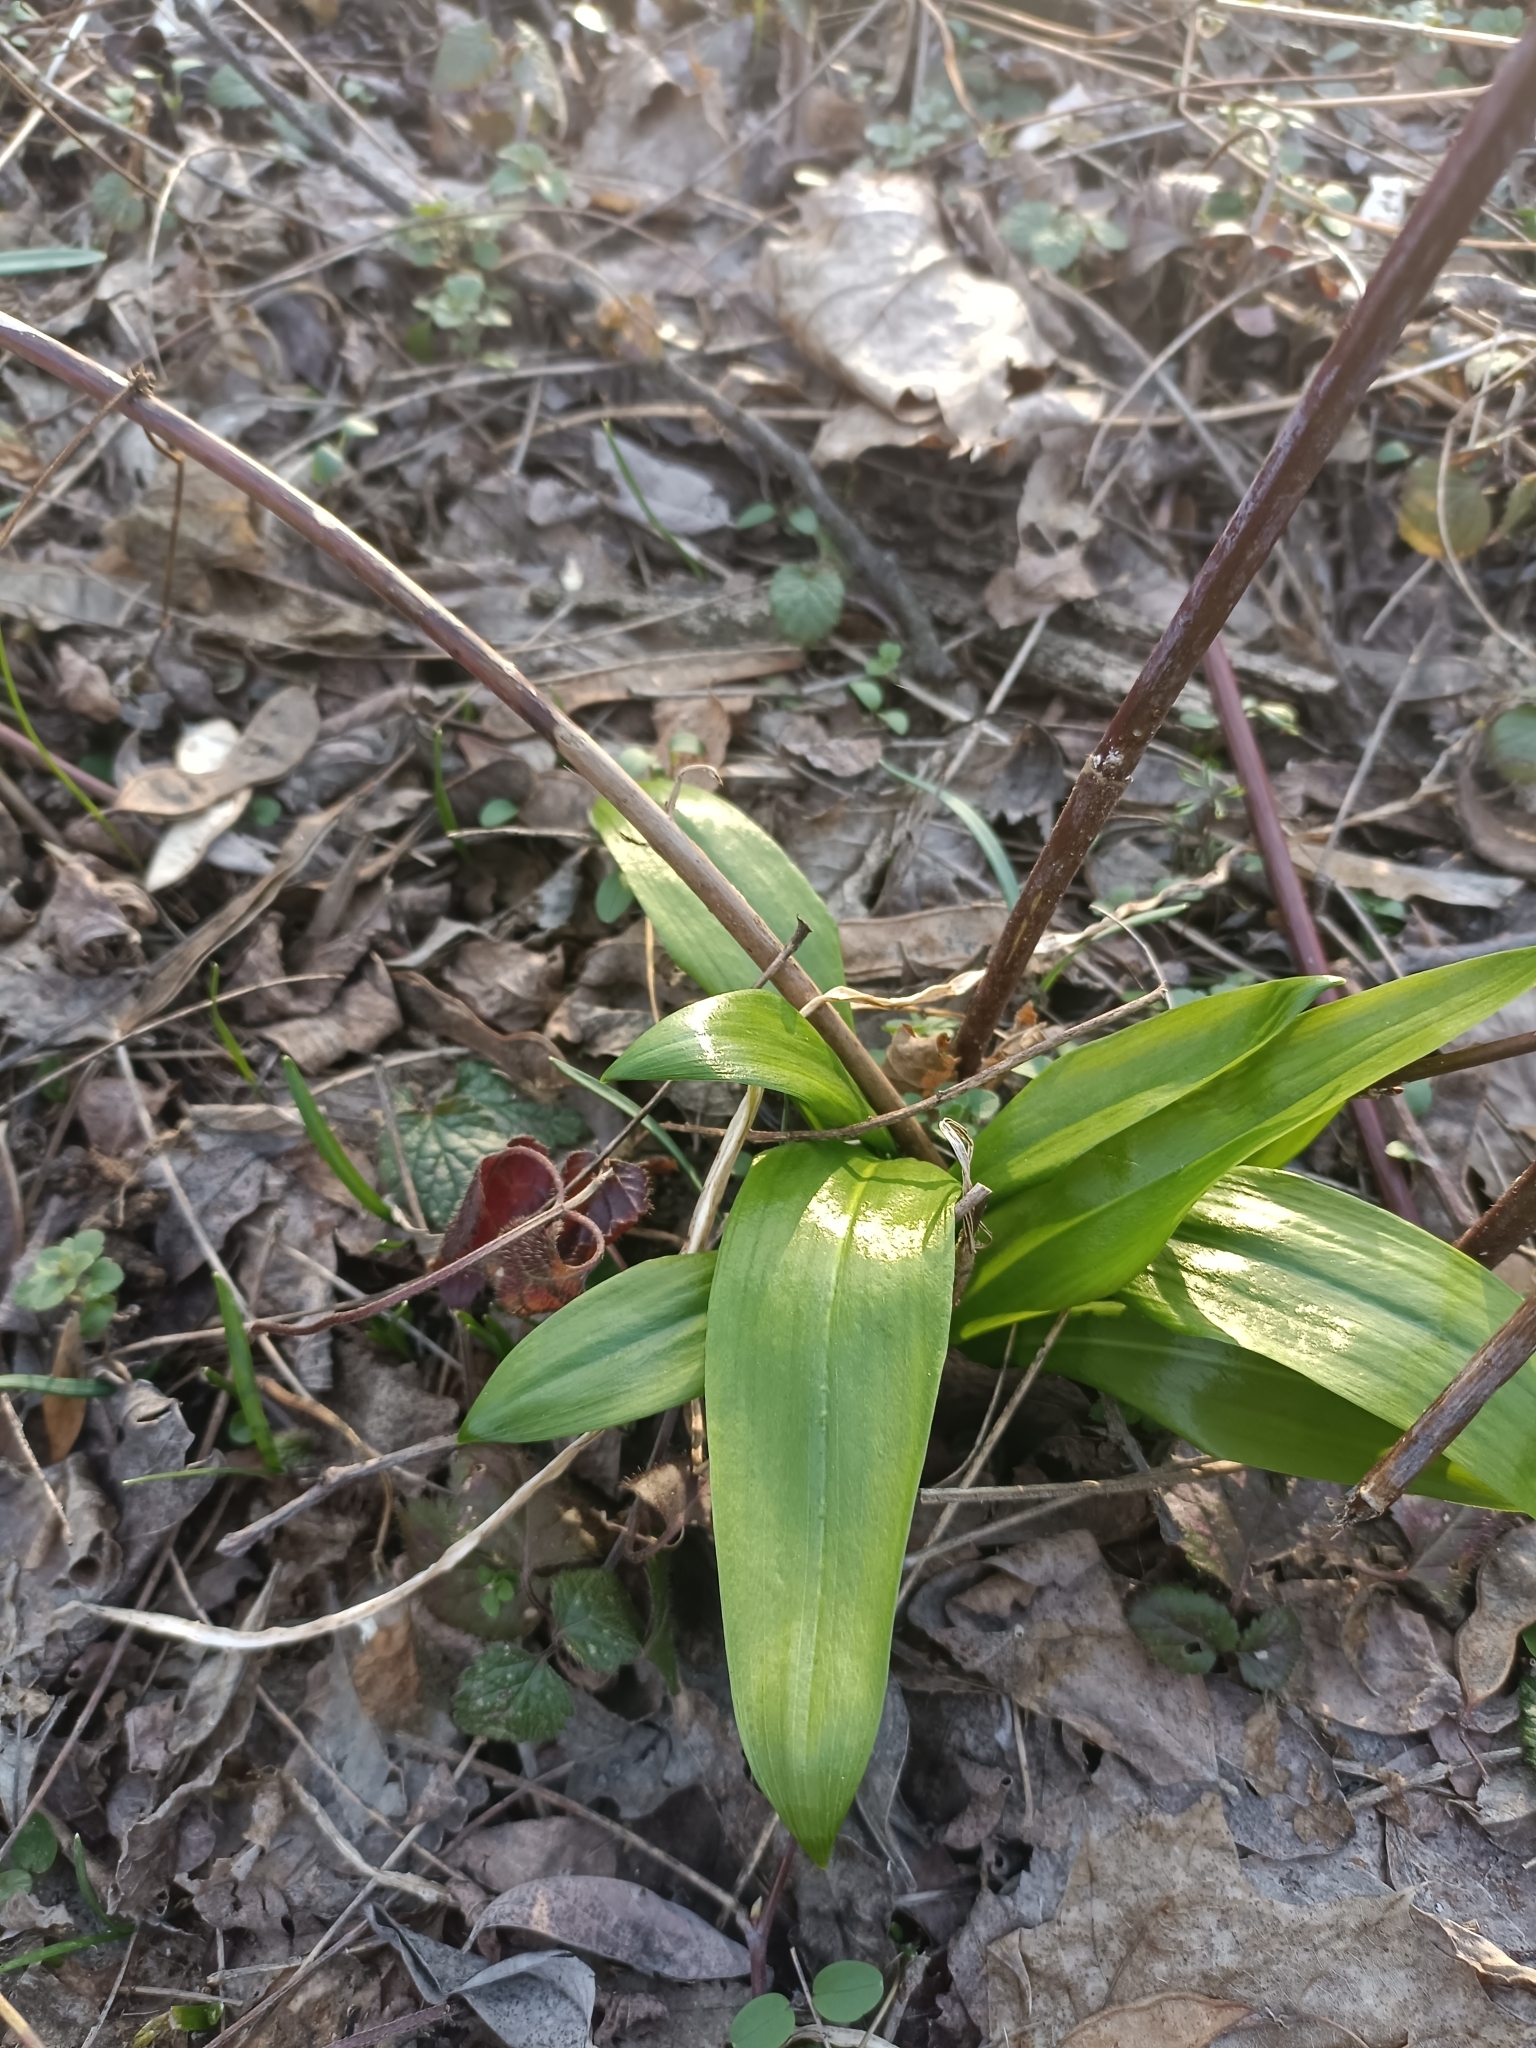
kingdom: Plantae
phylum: Tracheophyta
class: Liliopsida
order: Asparagales
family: Amaryllidaceae
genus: Allium
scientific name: Allium ursinum
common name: Ramsons
